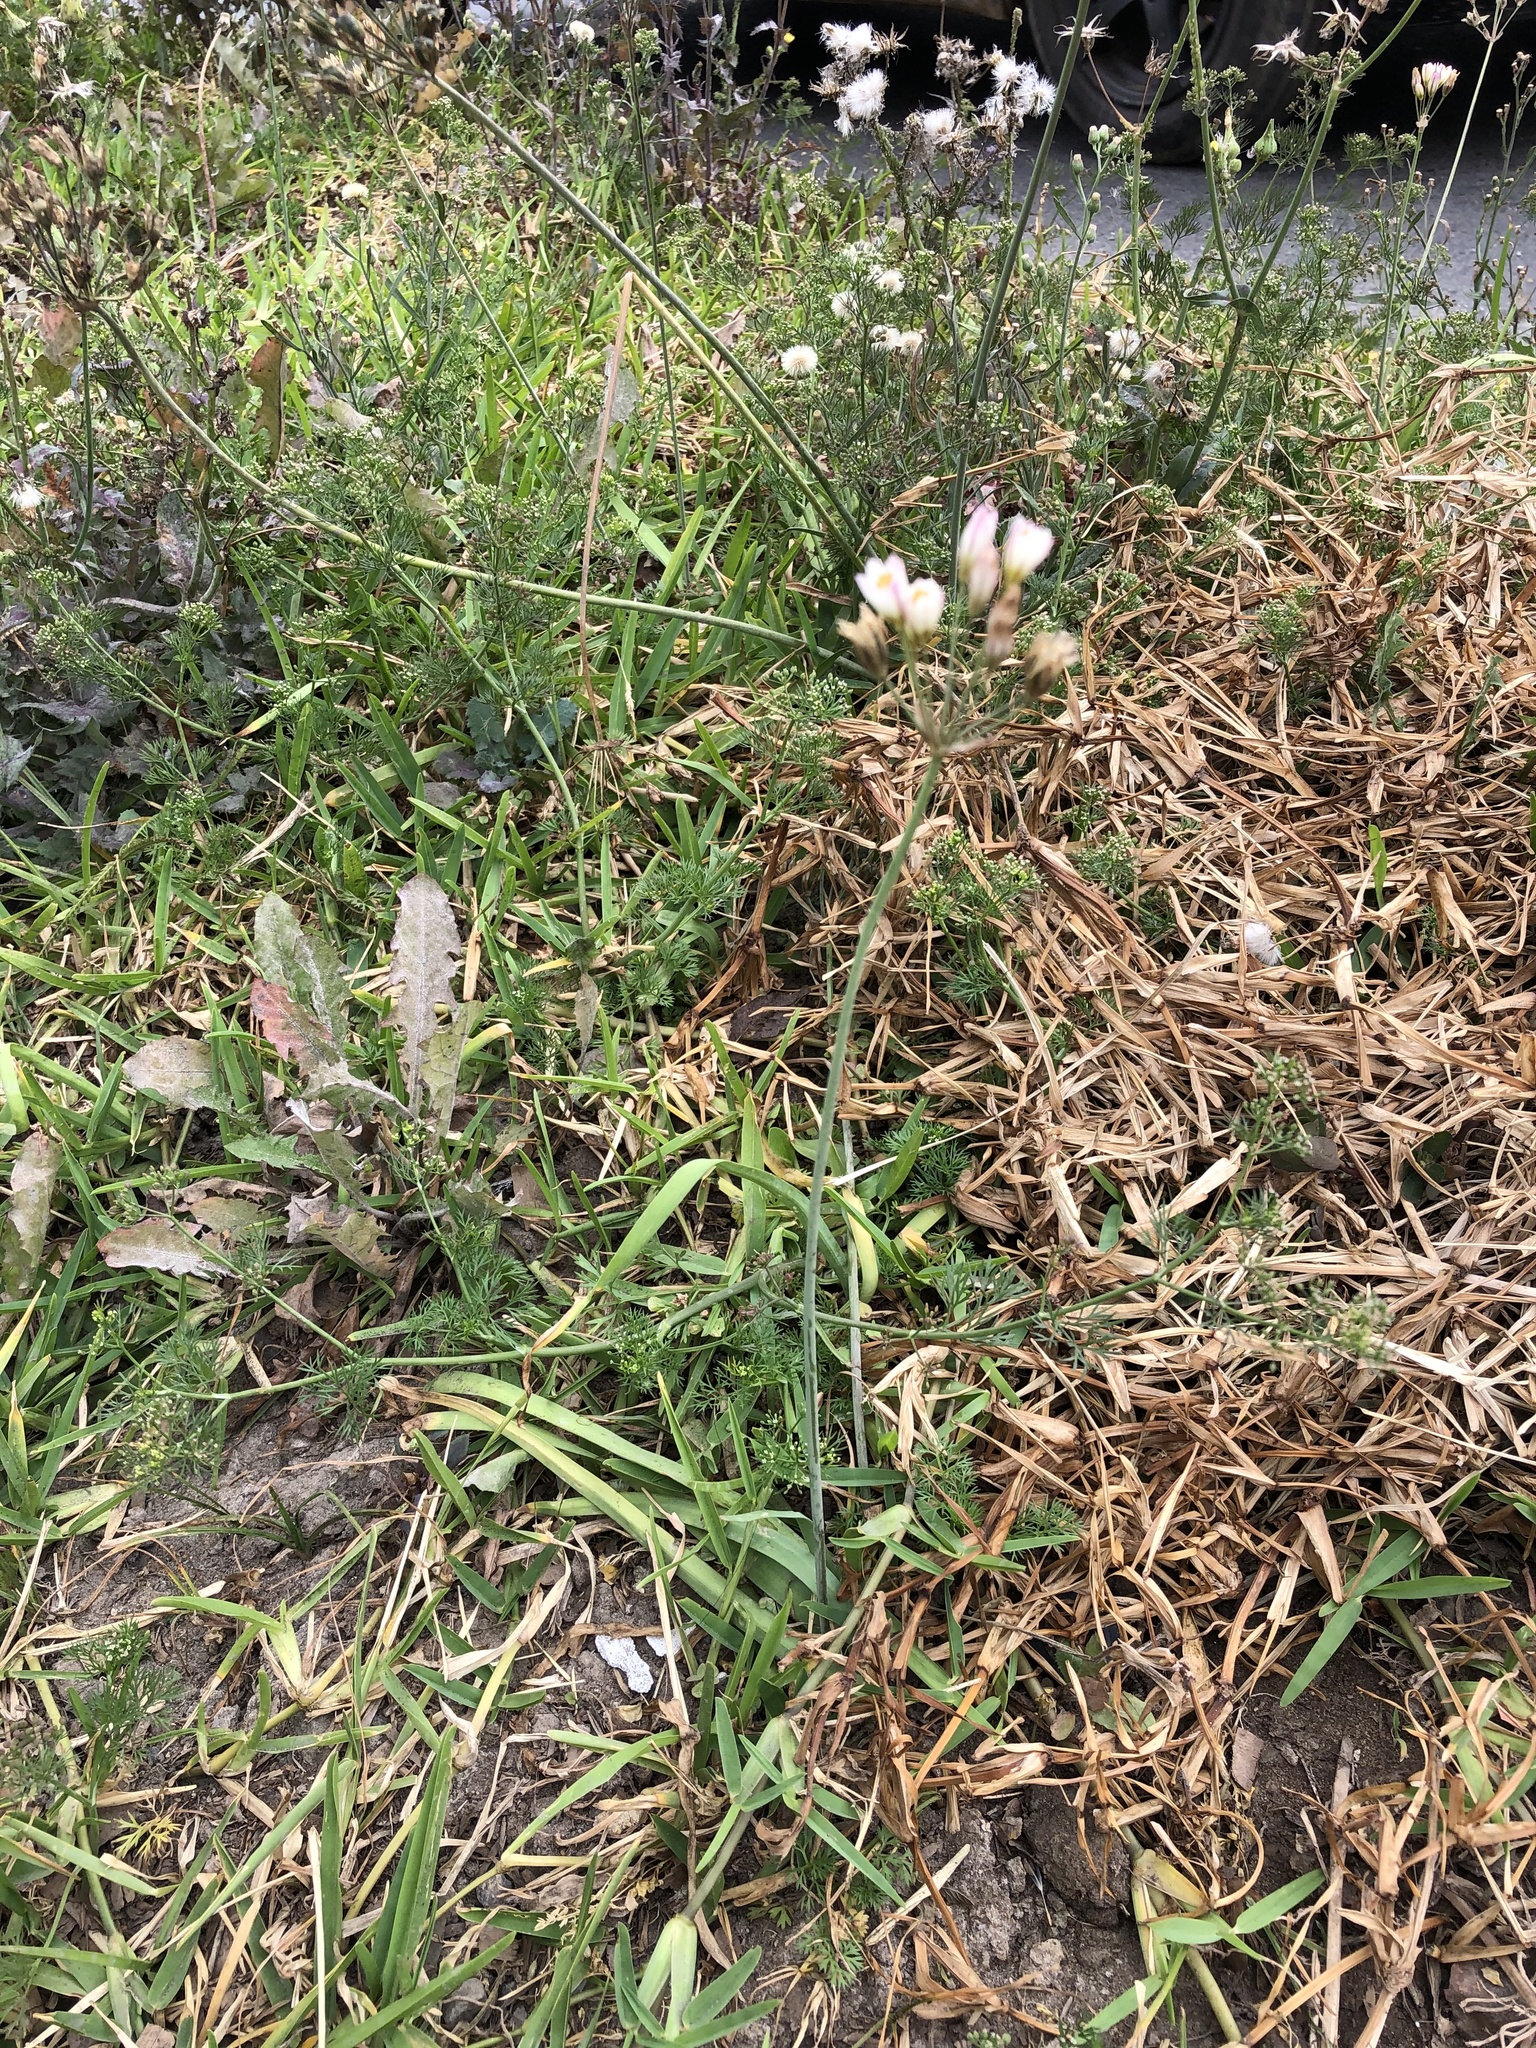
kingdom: Plantae
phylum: Tracheophyta
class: Liliopsida
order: Asparagales
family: Amaryllidaceae
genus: Nothoscordum
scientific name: Nothoscordum gracile
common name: Slender false garlic
